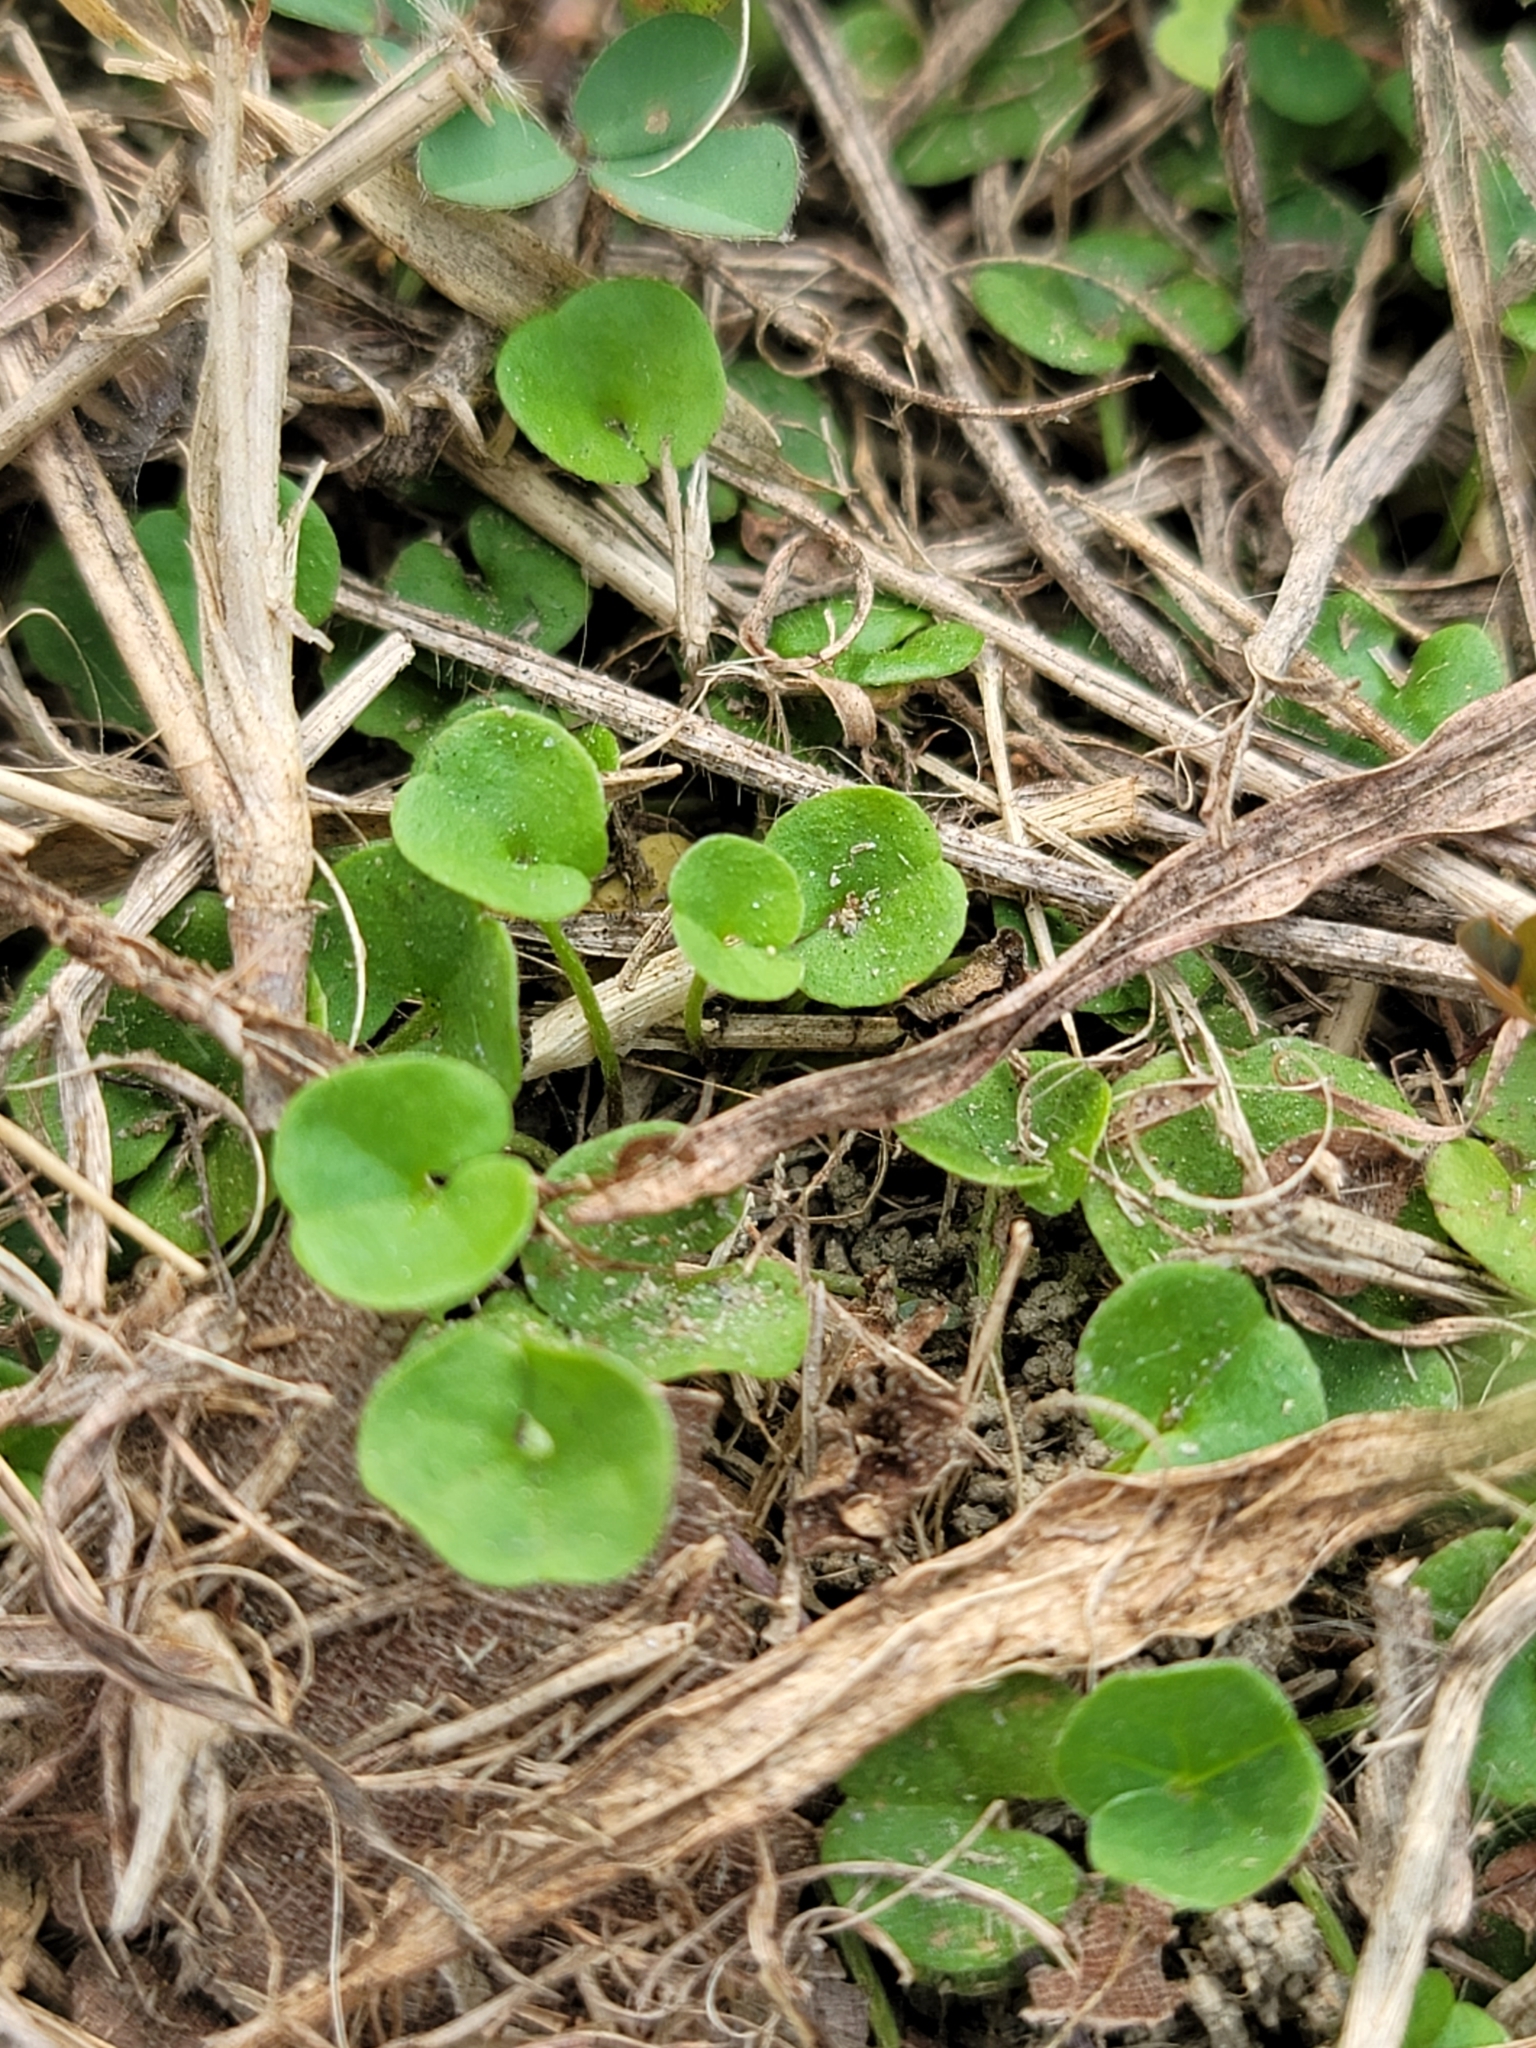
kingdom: Plantae
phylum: Tracheophyta
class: Magnoliopsida
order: Solanales
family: Convolvulaceae
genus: Dichondra
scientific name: Dichondra micrantha
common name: Kidneyweed
